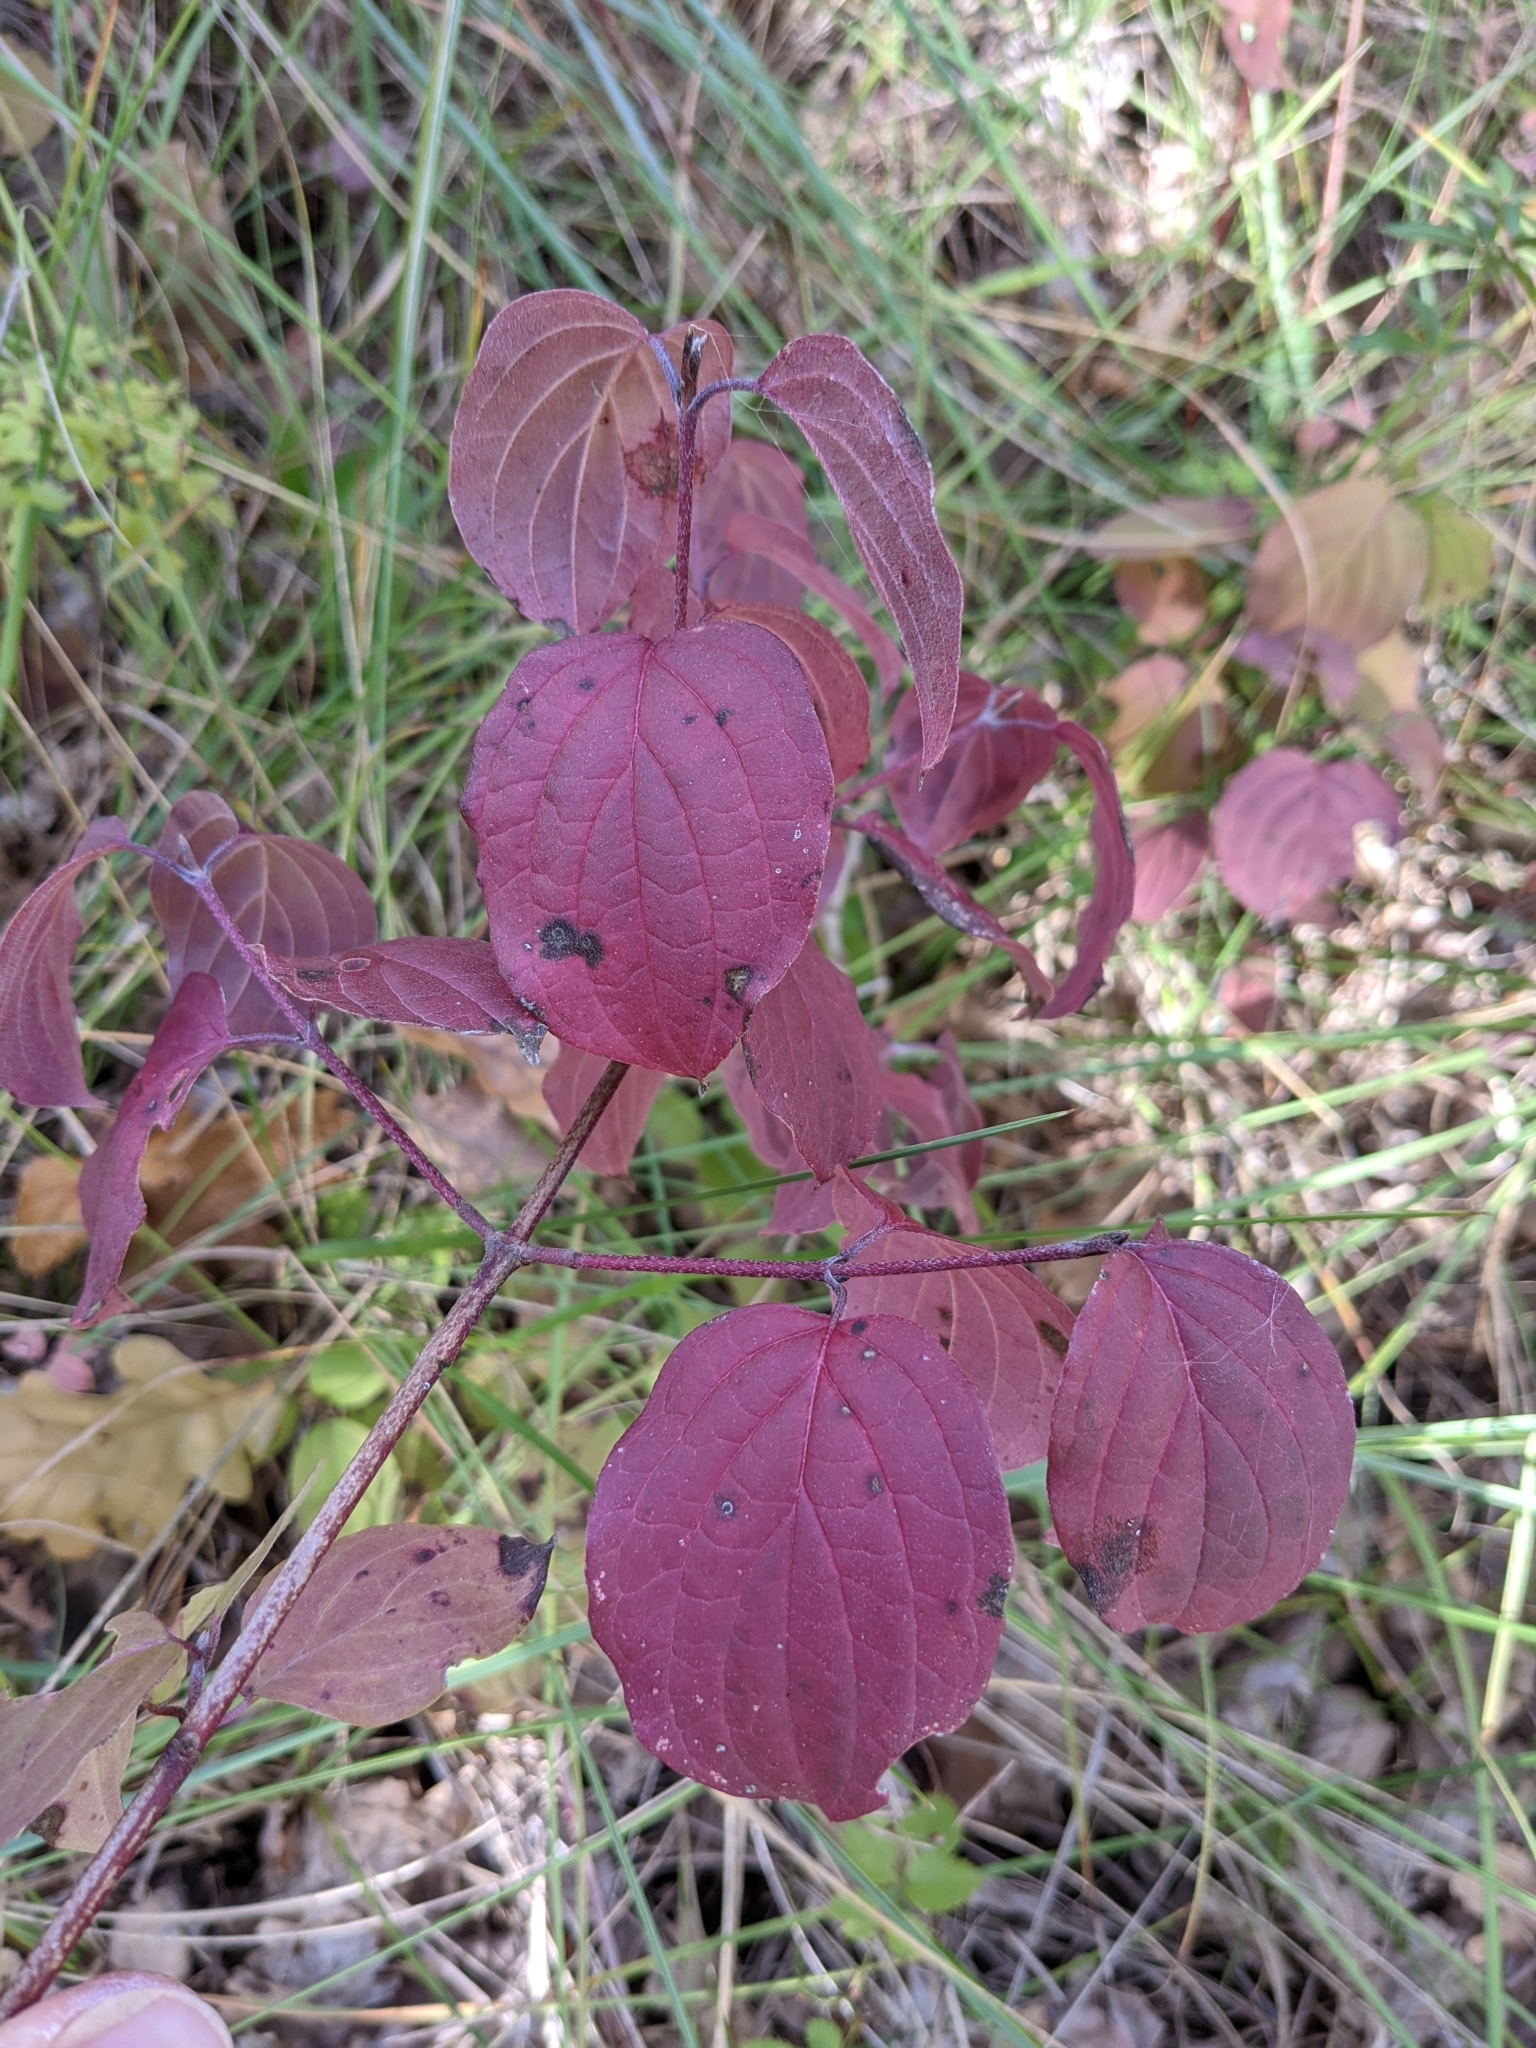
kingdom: Plantae
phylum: Tracheophyta
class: Magnoliopsida
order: Cornales
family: Cornaceae
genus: Cornus
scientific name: Cornus sanguinea
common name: Dogwood
